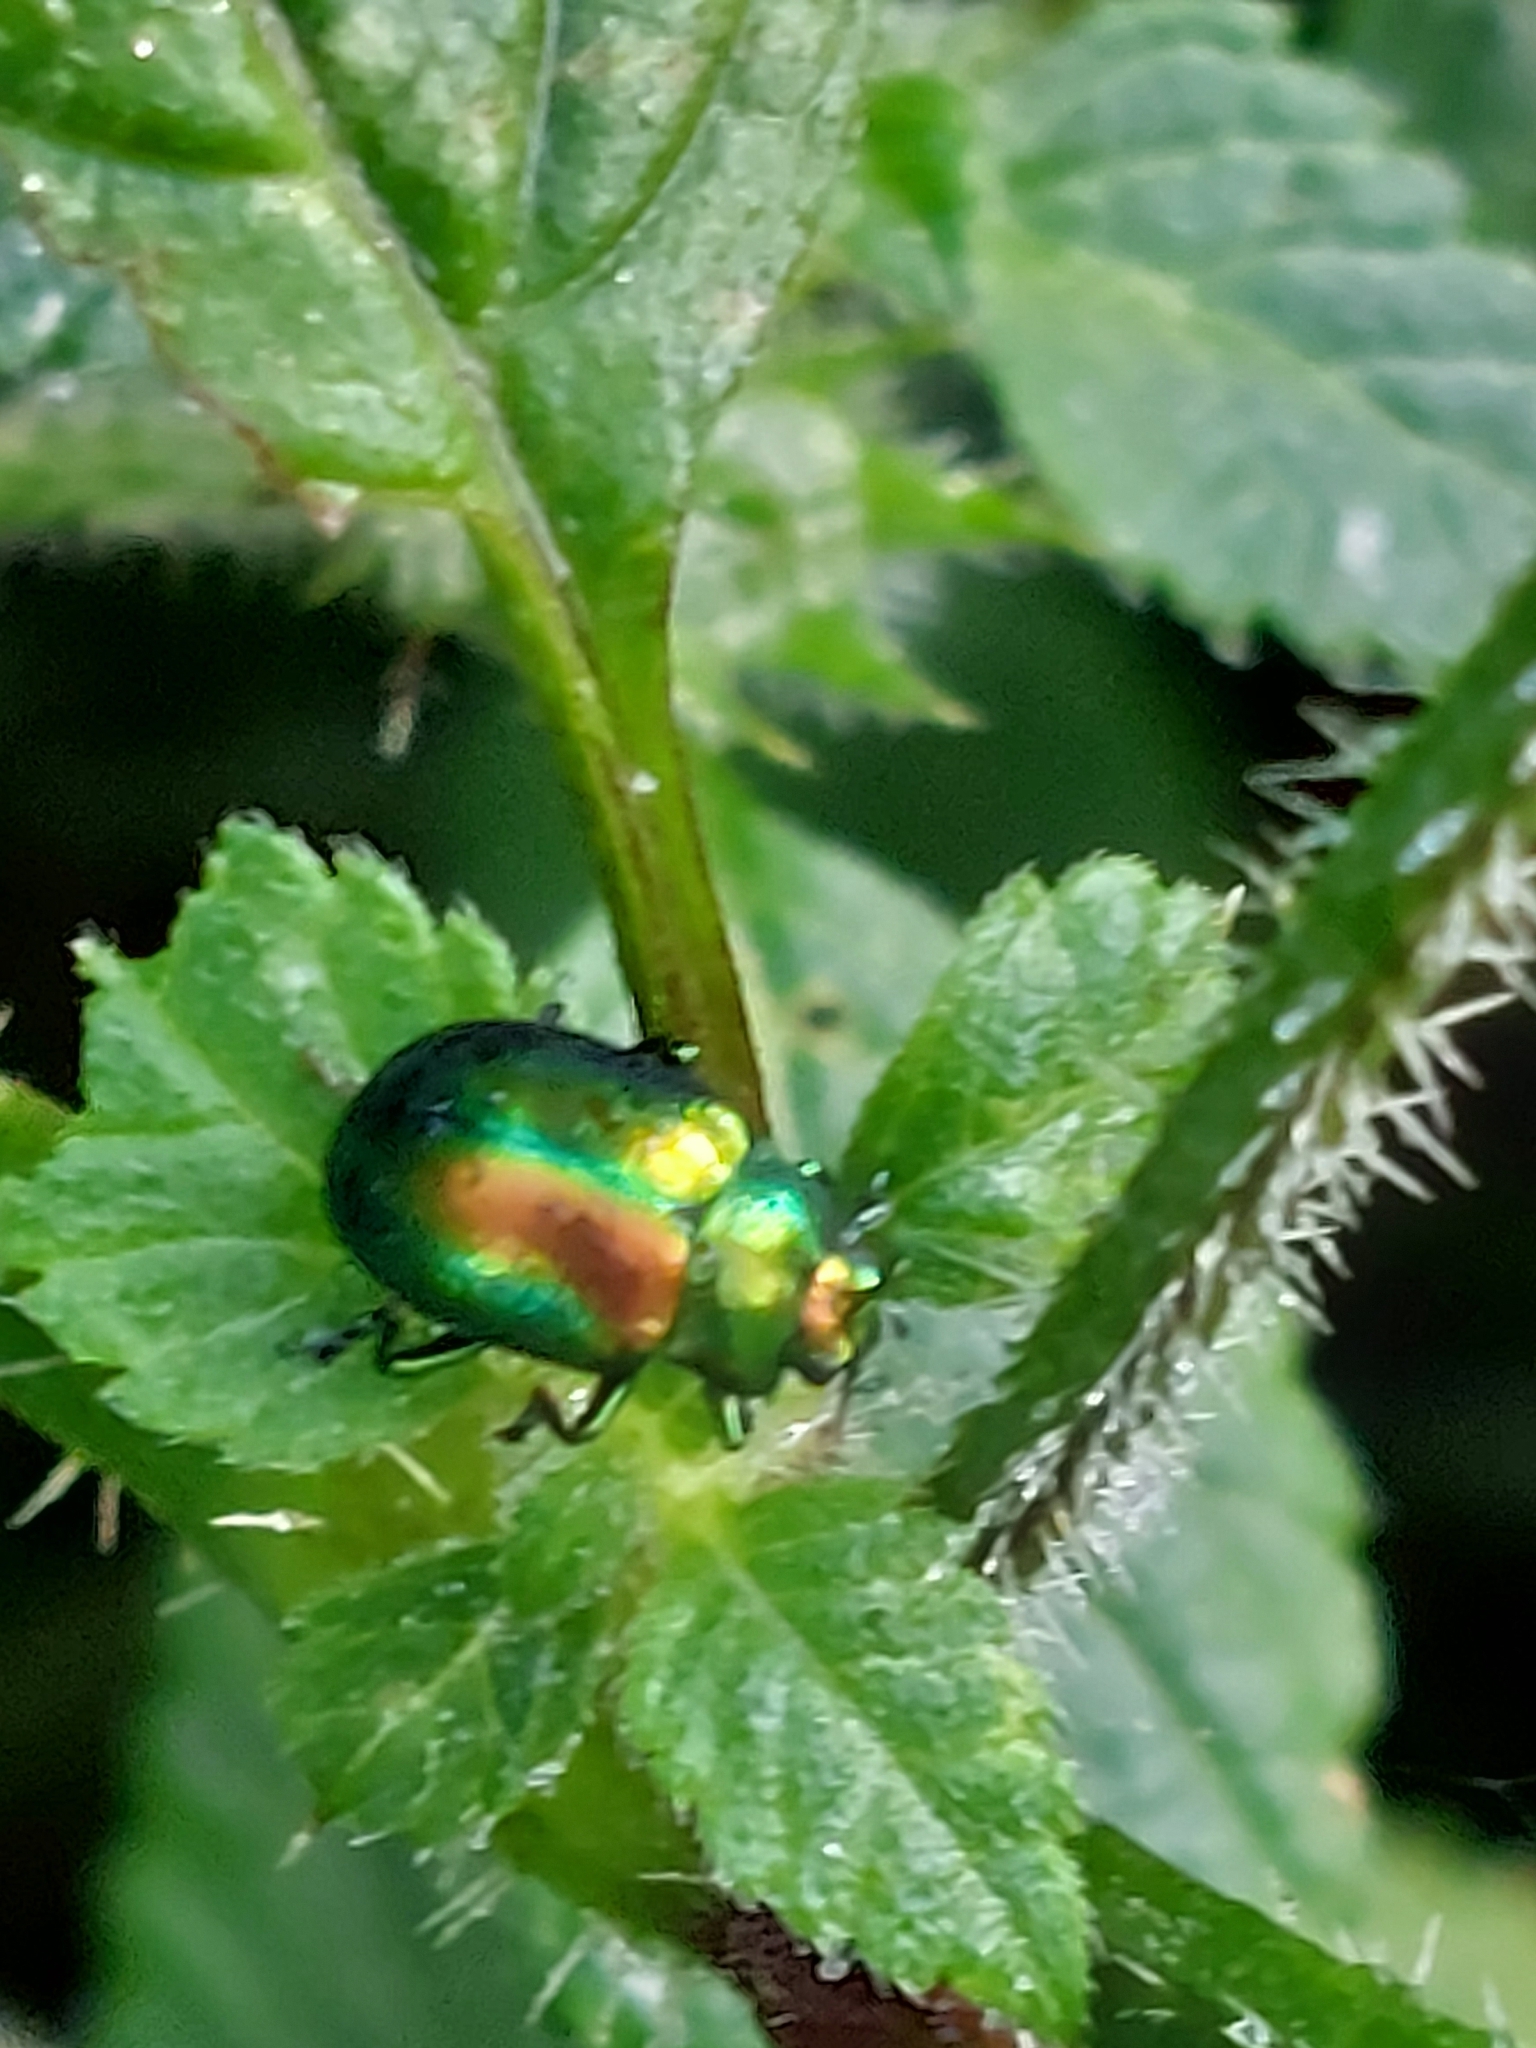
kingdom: Animalia
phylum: Arthropoda
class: Insecta
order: Coleoptera
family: Chrysomelidae
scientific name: Chrysomelidae
